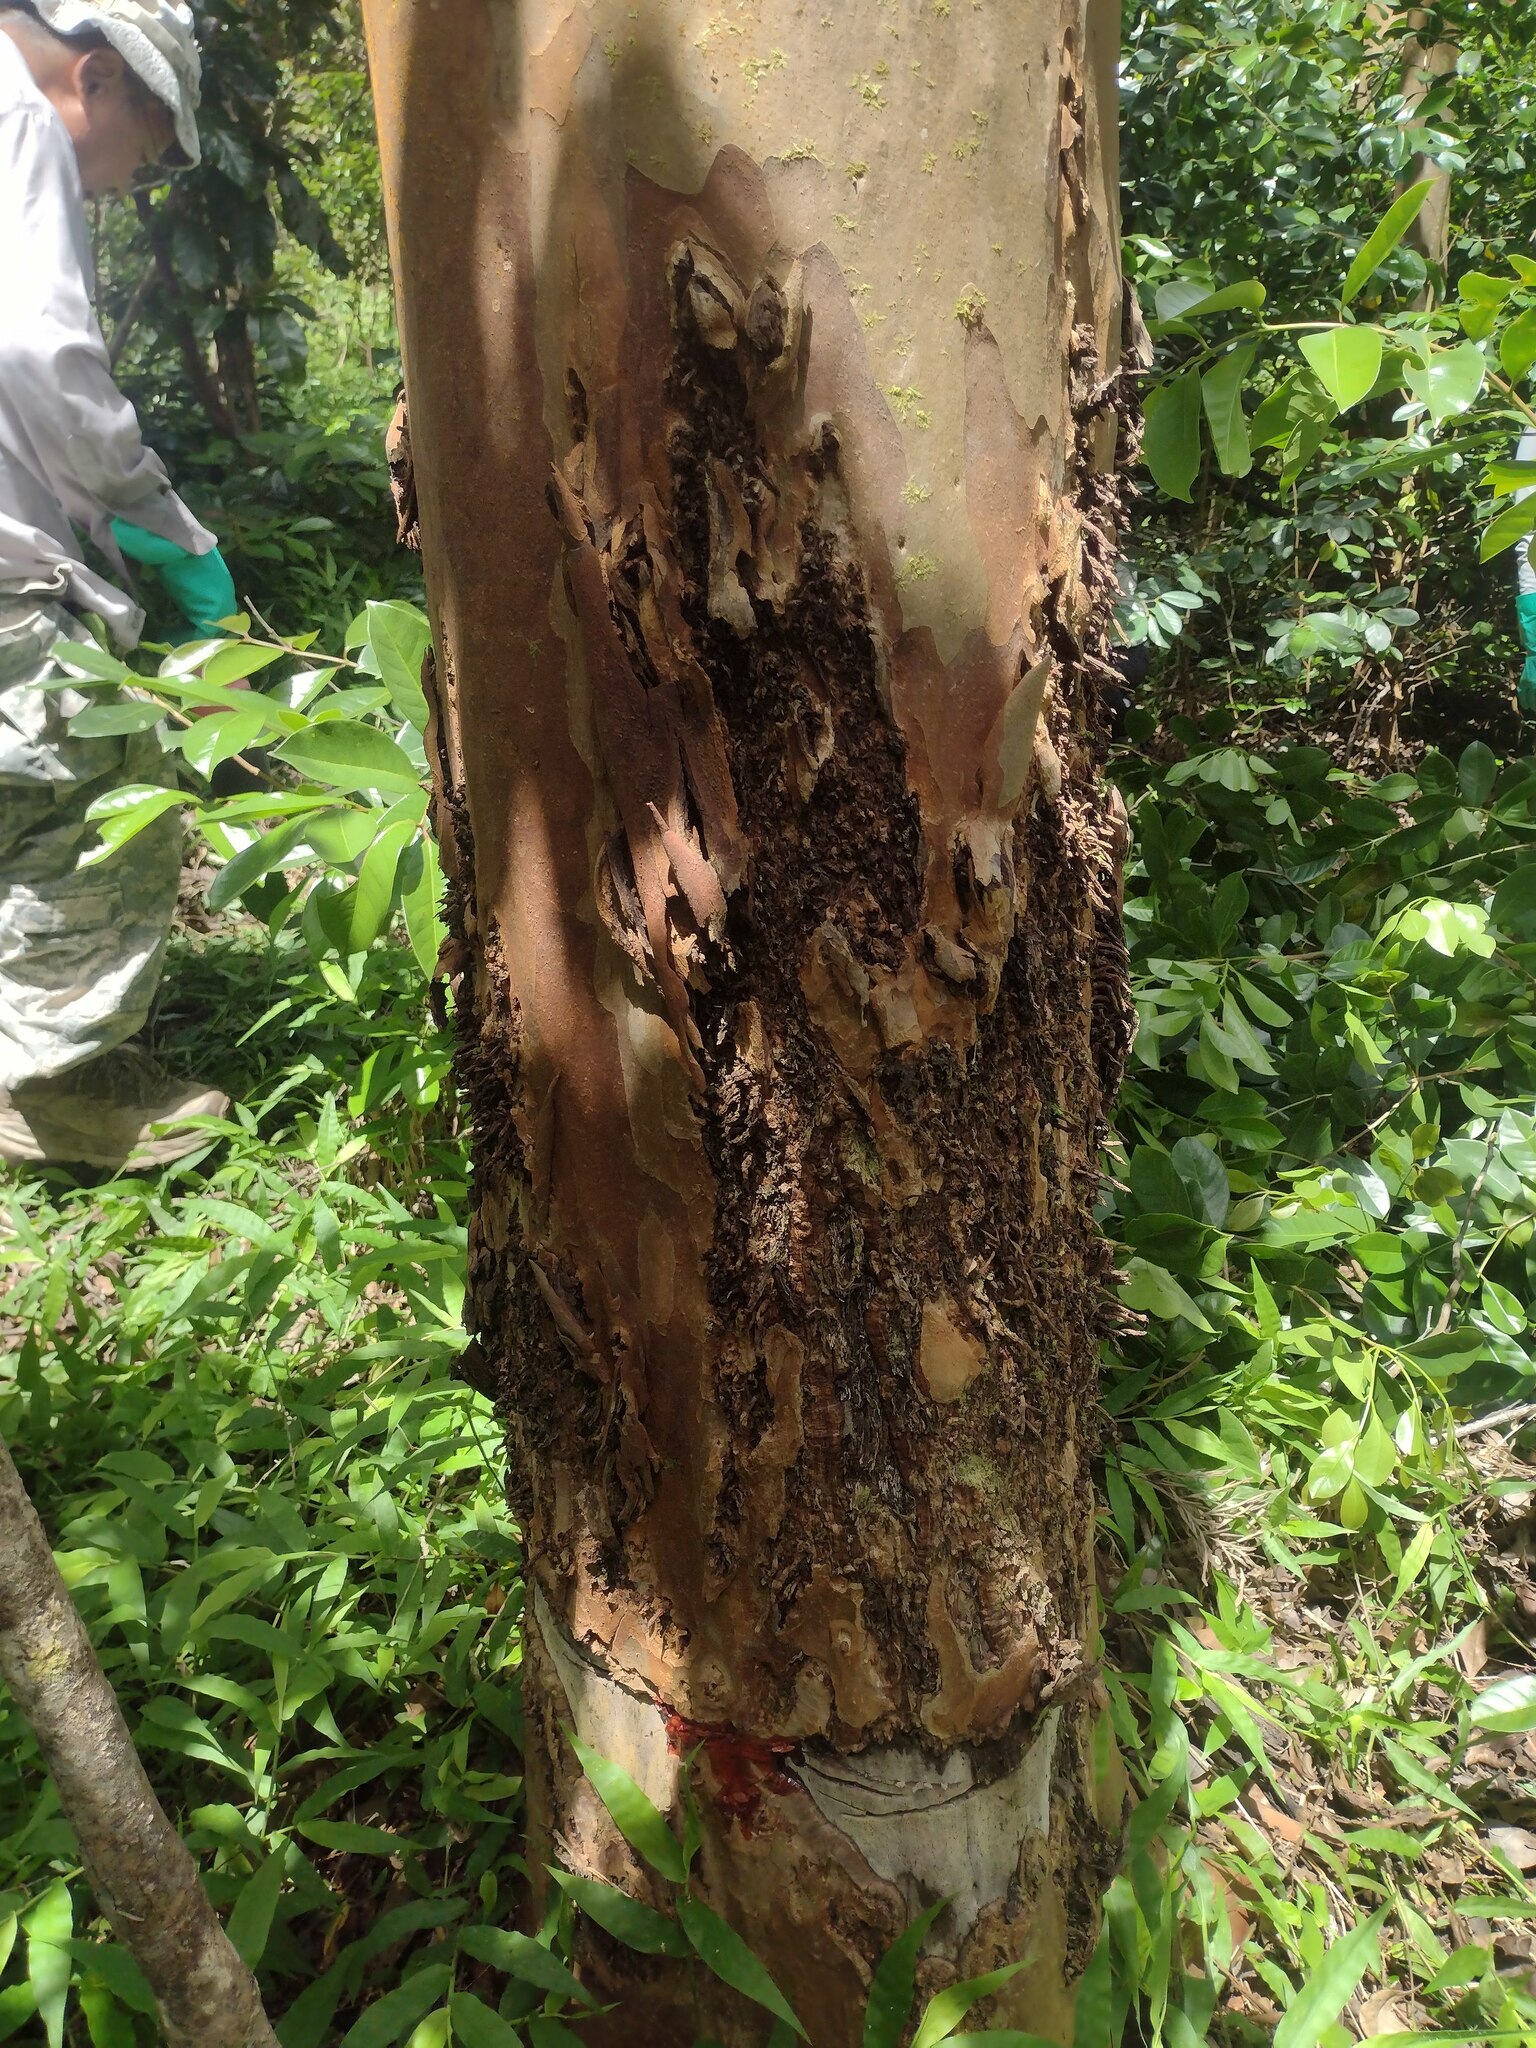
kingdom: Plantae
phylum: Tracheophyta
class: Magnoliopsida
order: Myrtales
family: Myrtaceae
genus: Psidium
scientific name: Psidium cattleianum
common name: Strawberry guava
